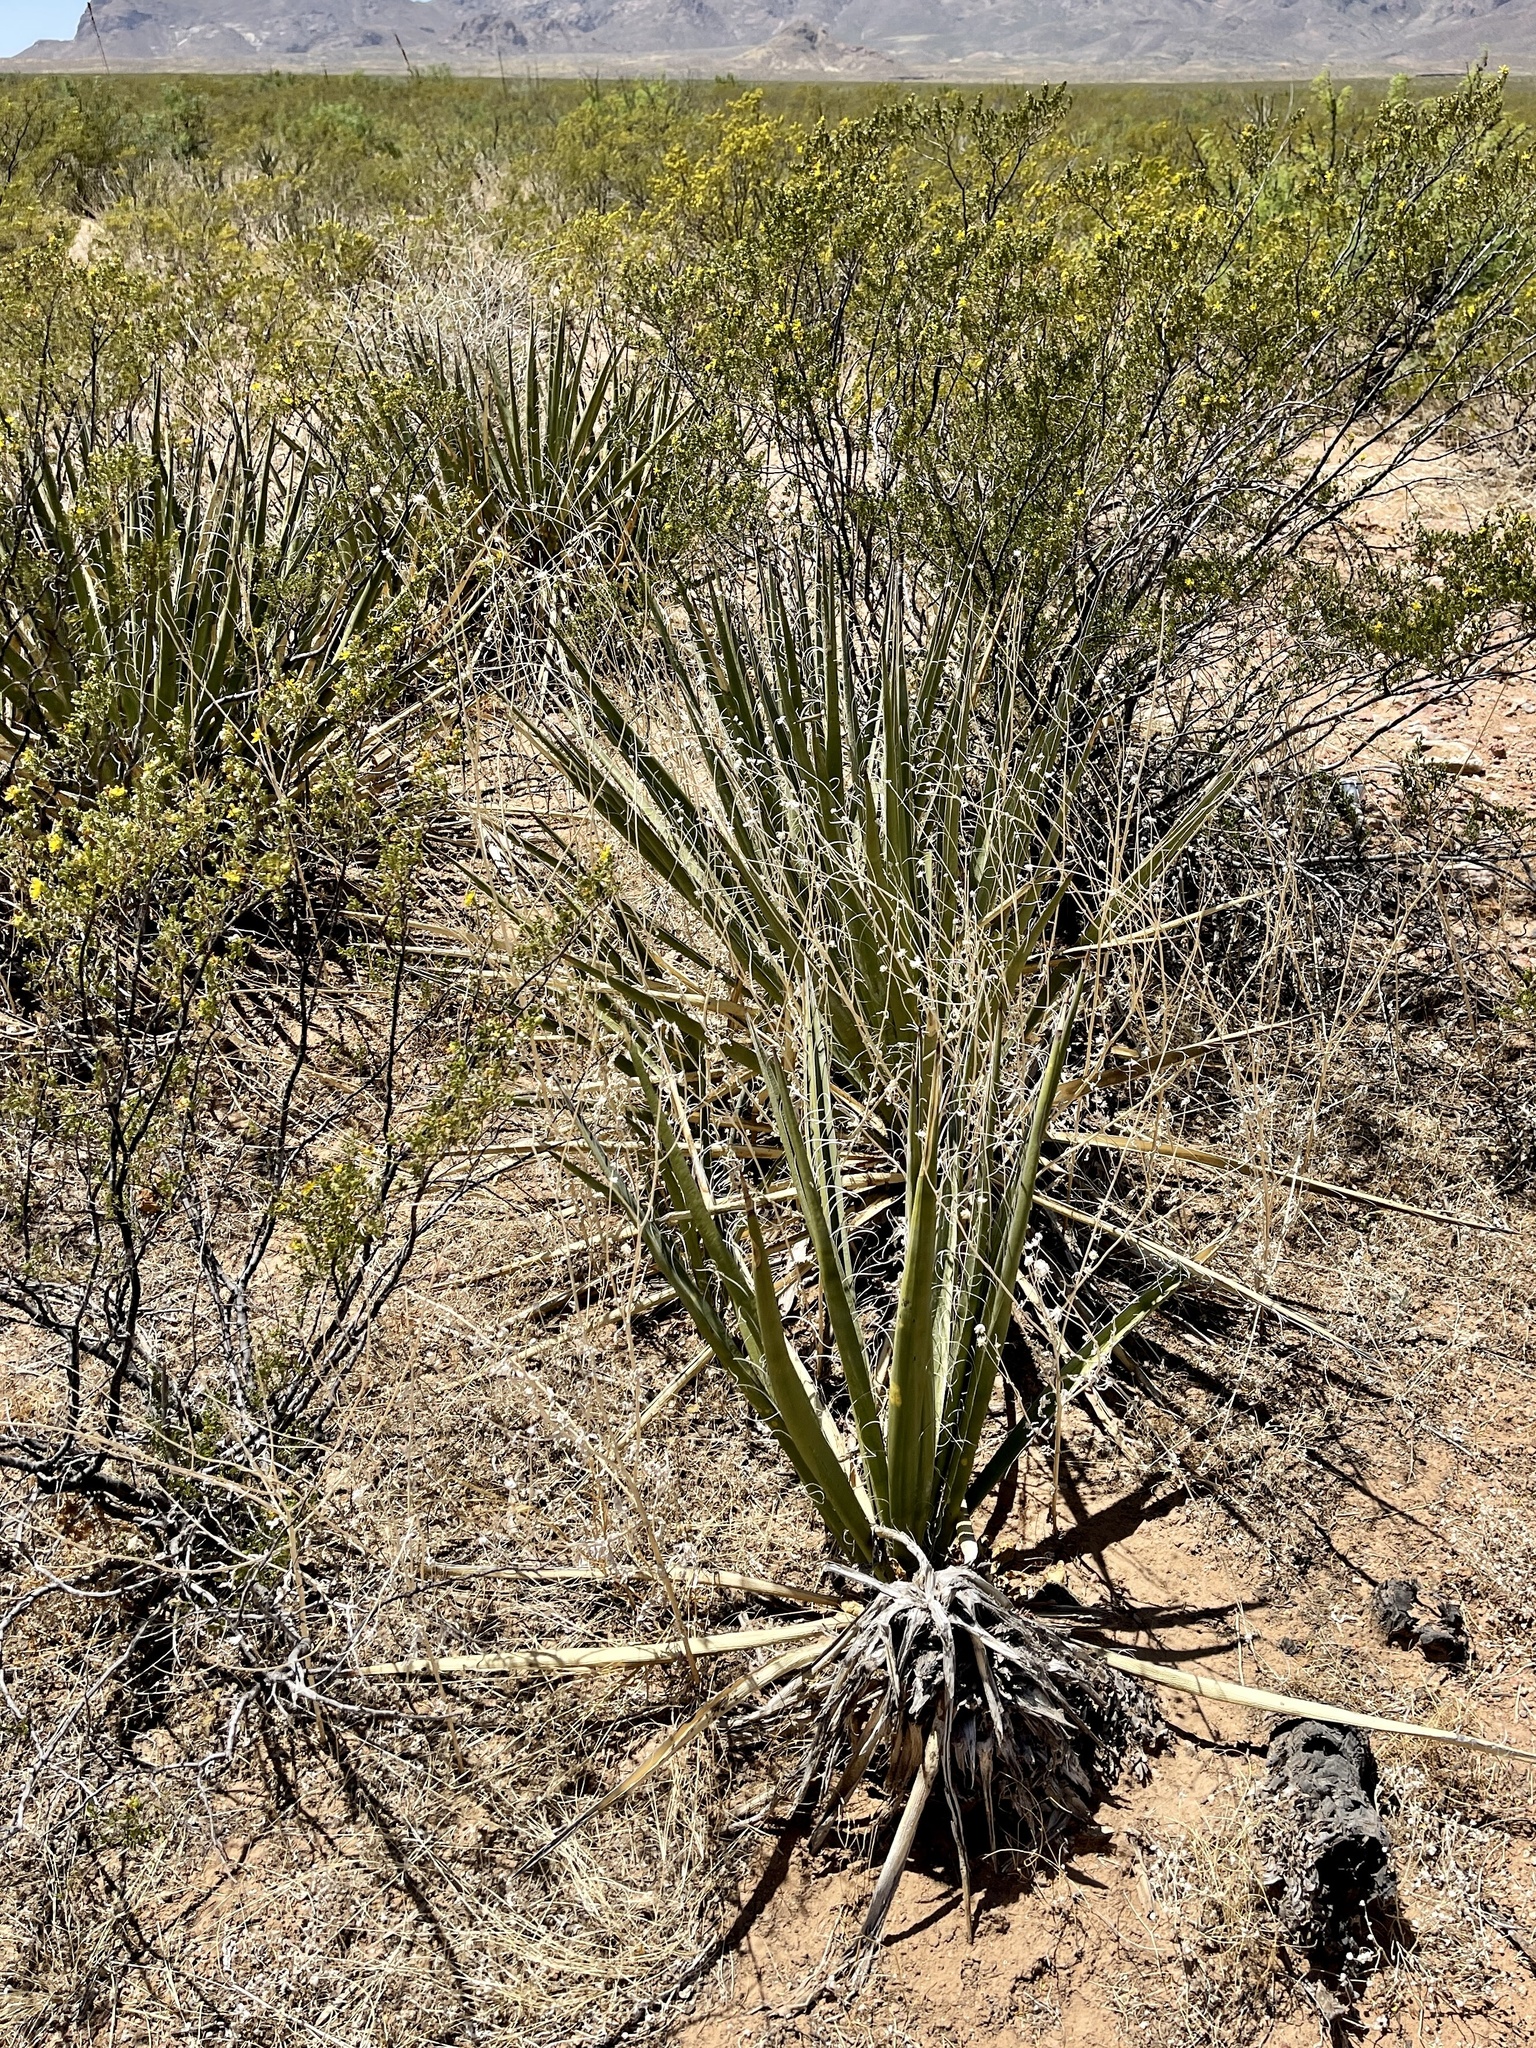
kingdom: Plantae
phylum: Tracheophyta
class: Liliopsida
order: Asparagales
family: Asparagaceae
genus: Yucca
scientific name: Yucca baccata
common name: Banana yucca
